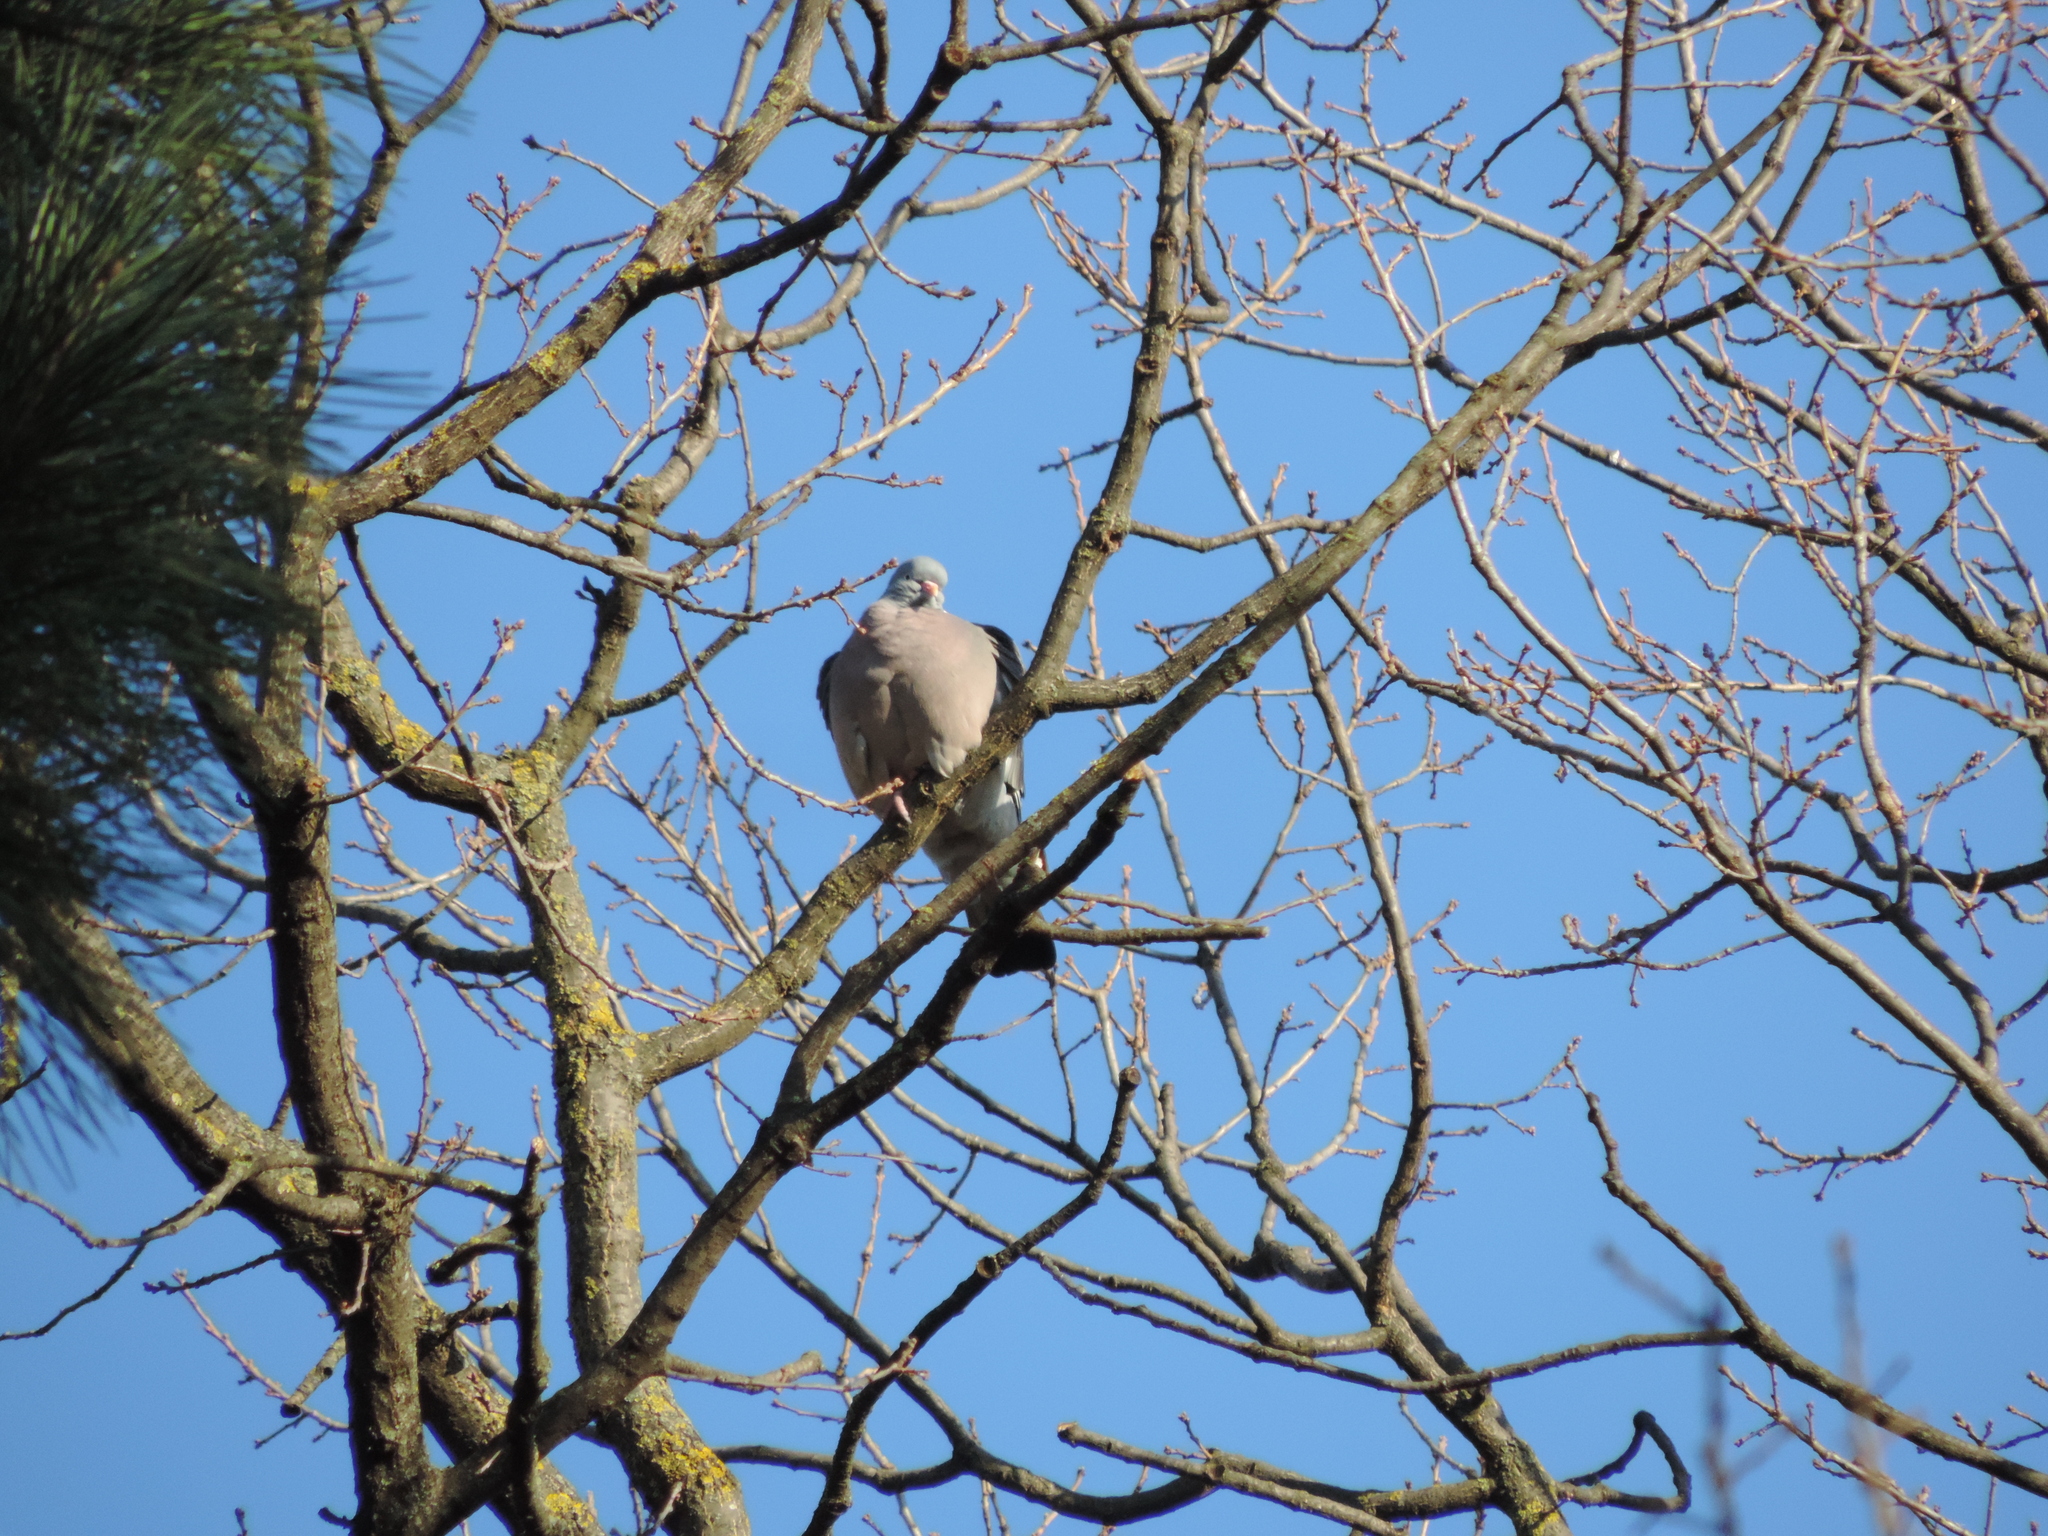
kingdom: Animalia
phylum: Chordata
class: Aves
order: Columbiformes
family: Columbidae
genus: Columba
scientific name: Columba palumbus
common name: Common wood pigeon
